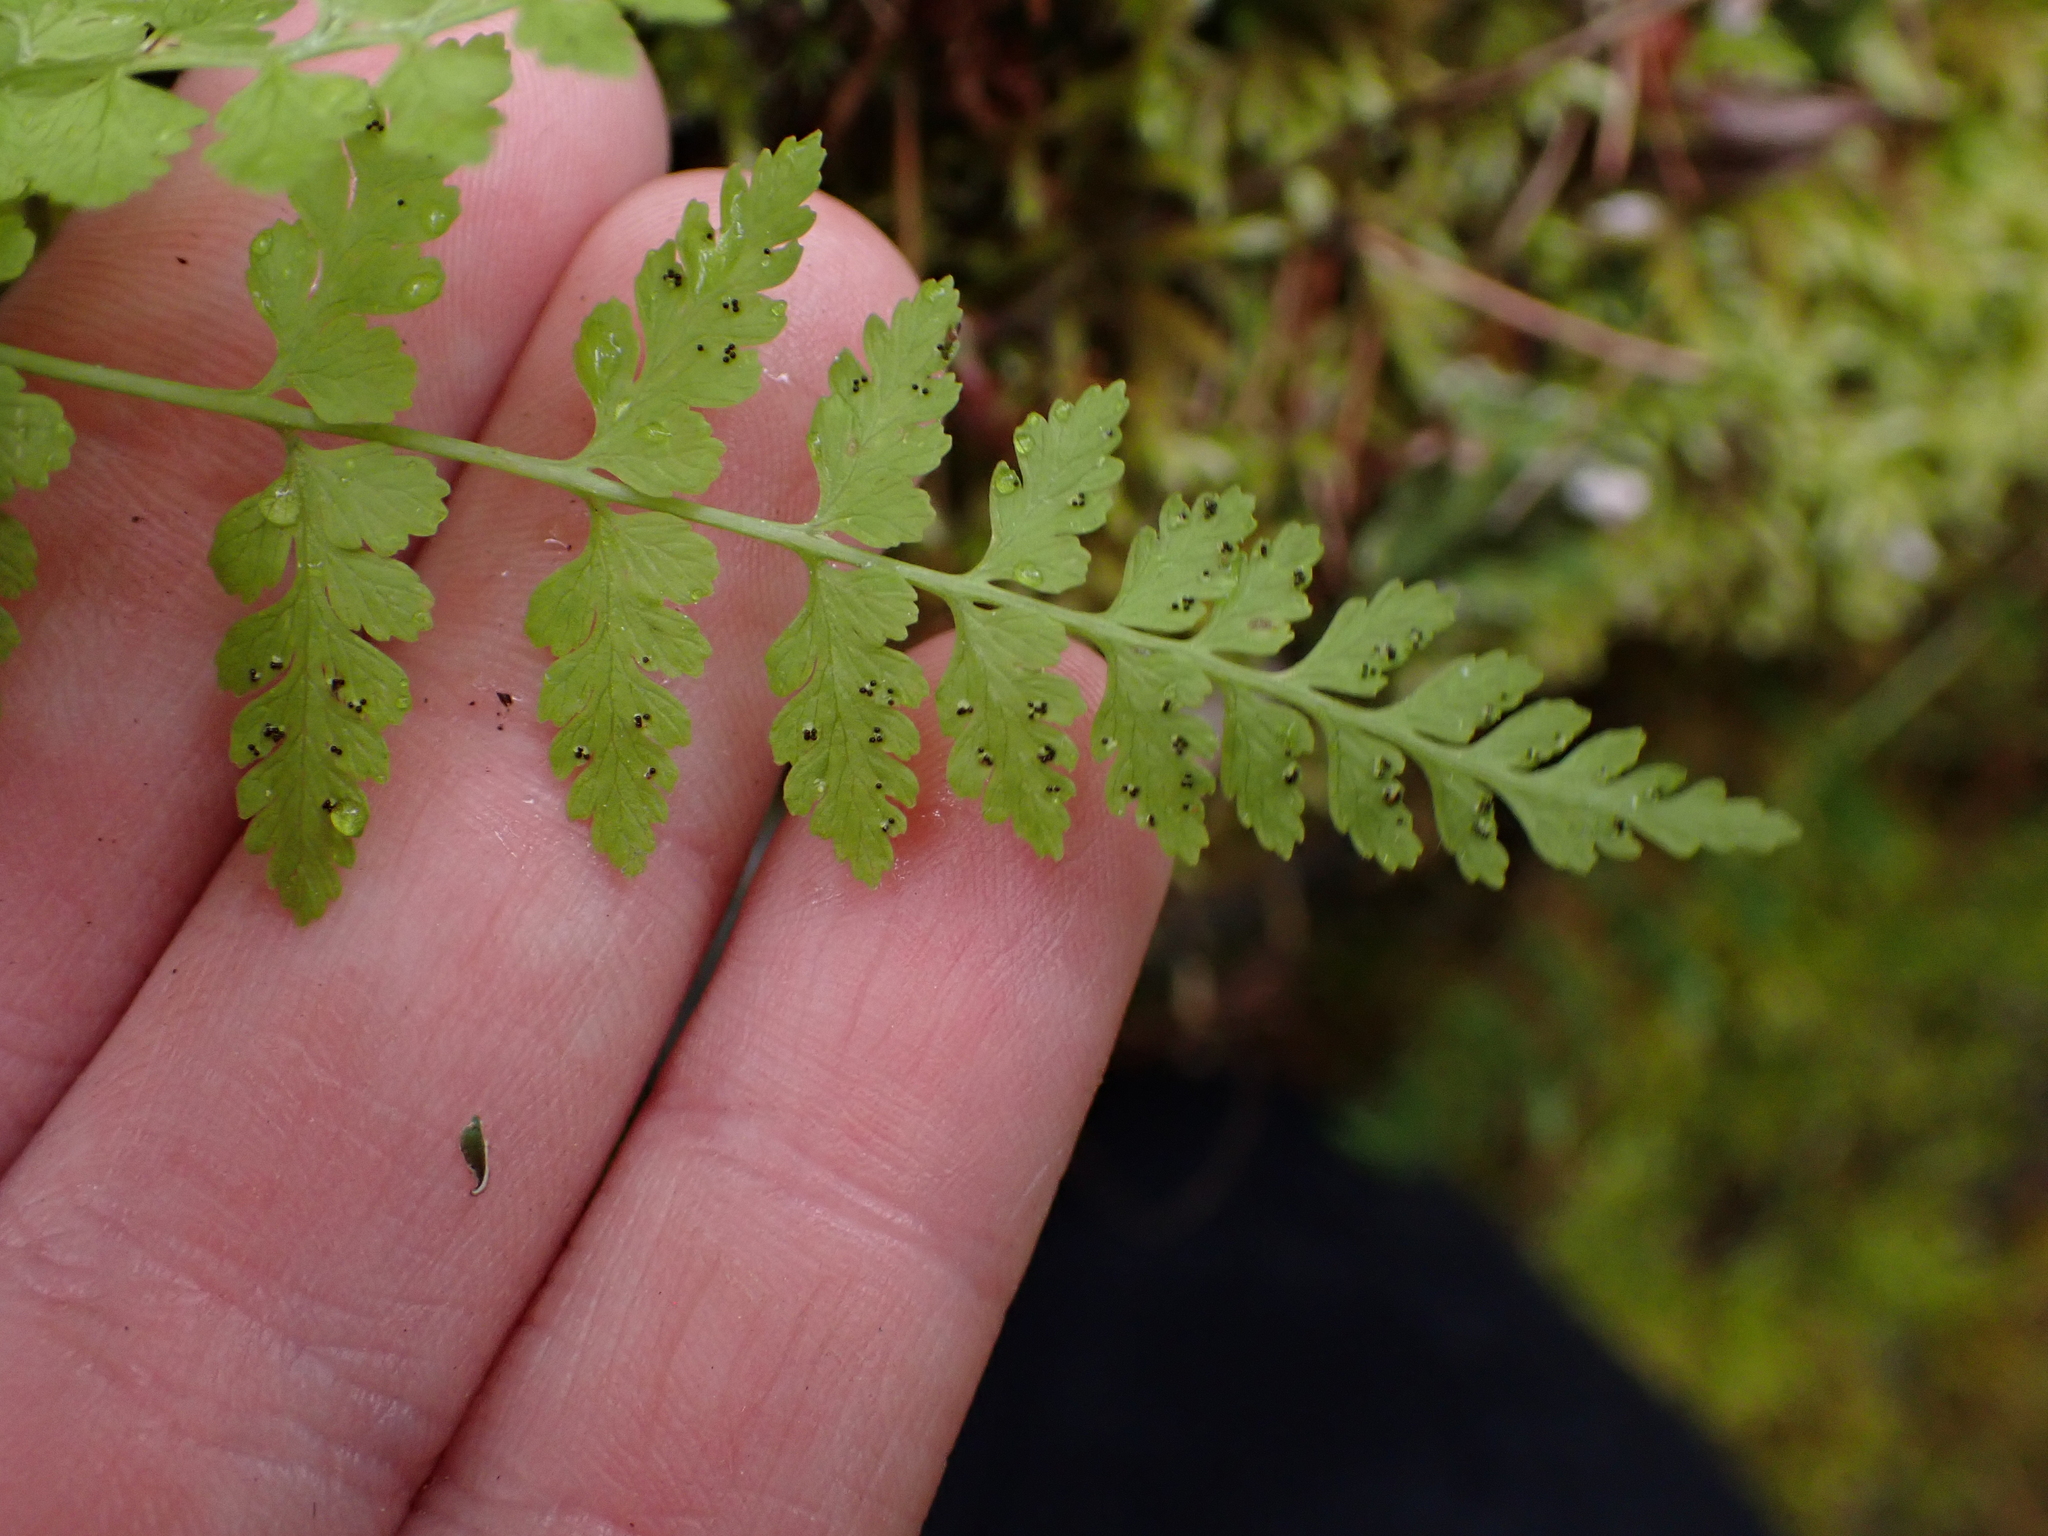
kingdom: Plantae
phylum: Tracheophyta
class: Polypodiopsida
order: Polypodiales
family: Cystopteridaceae
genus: Cystopteris
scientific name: Cystopteris fragilis
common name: Brittle bladder fern
